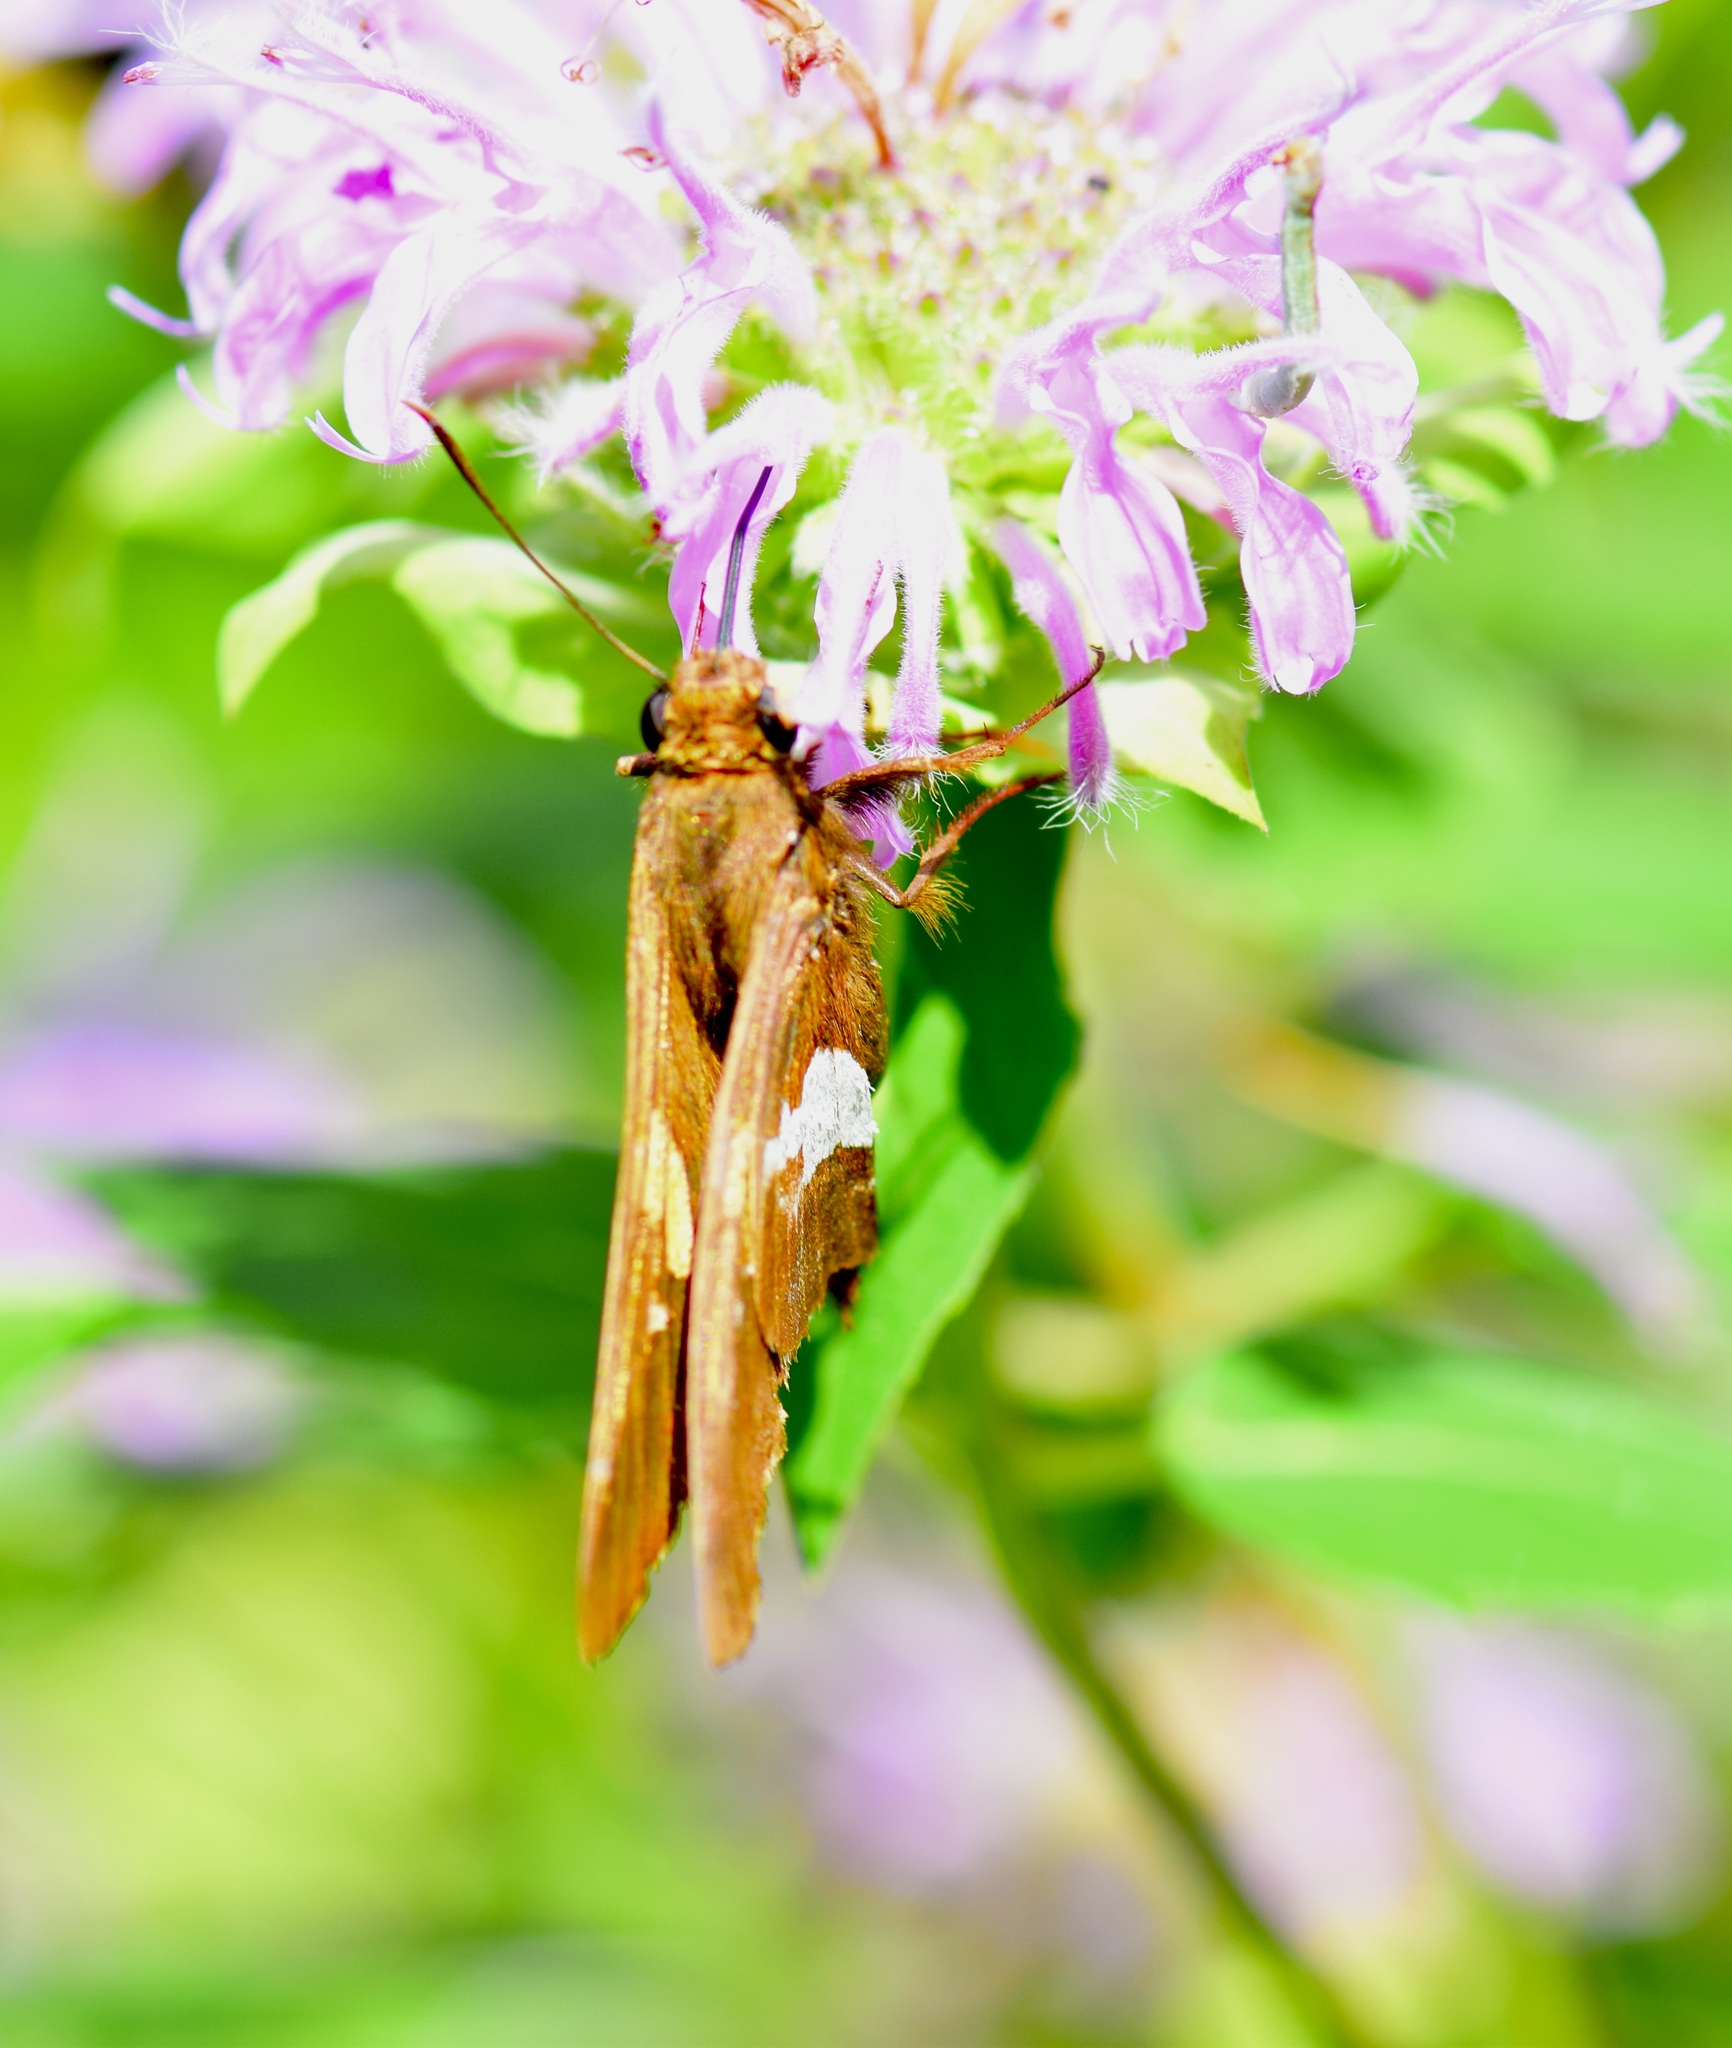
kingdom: Animalia
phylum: Arthropoda
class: Insecta
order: Lepidoptera
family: Hesperiidae
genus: Epargyreus
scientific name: Epargyreus clarus
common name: Silver-spotted skipper
